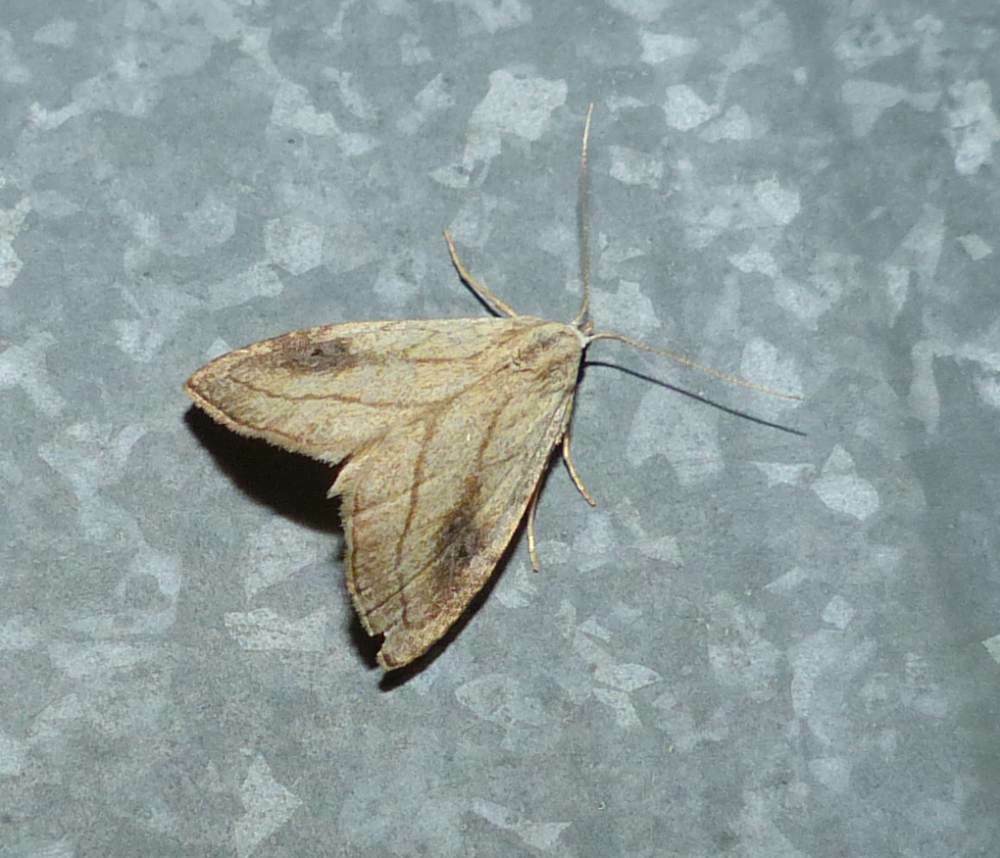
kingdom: Animalia
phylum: Arthropoda
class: Insecta
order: Lepidoptera
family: Erebidae
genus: Rivula
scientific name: Rivula propinqualis
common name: Spotted grass moth
